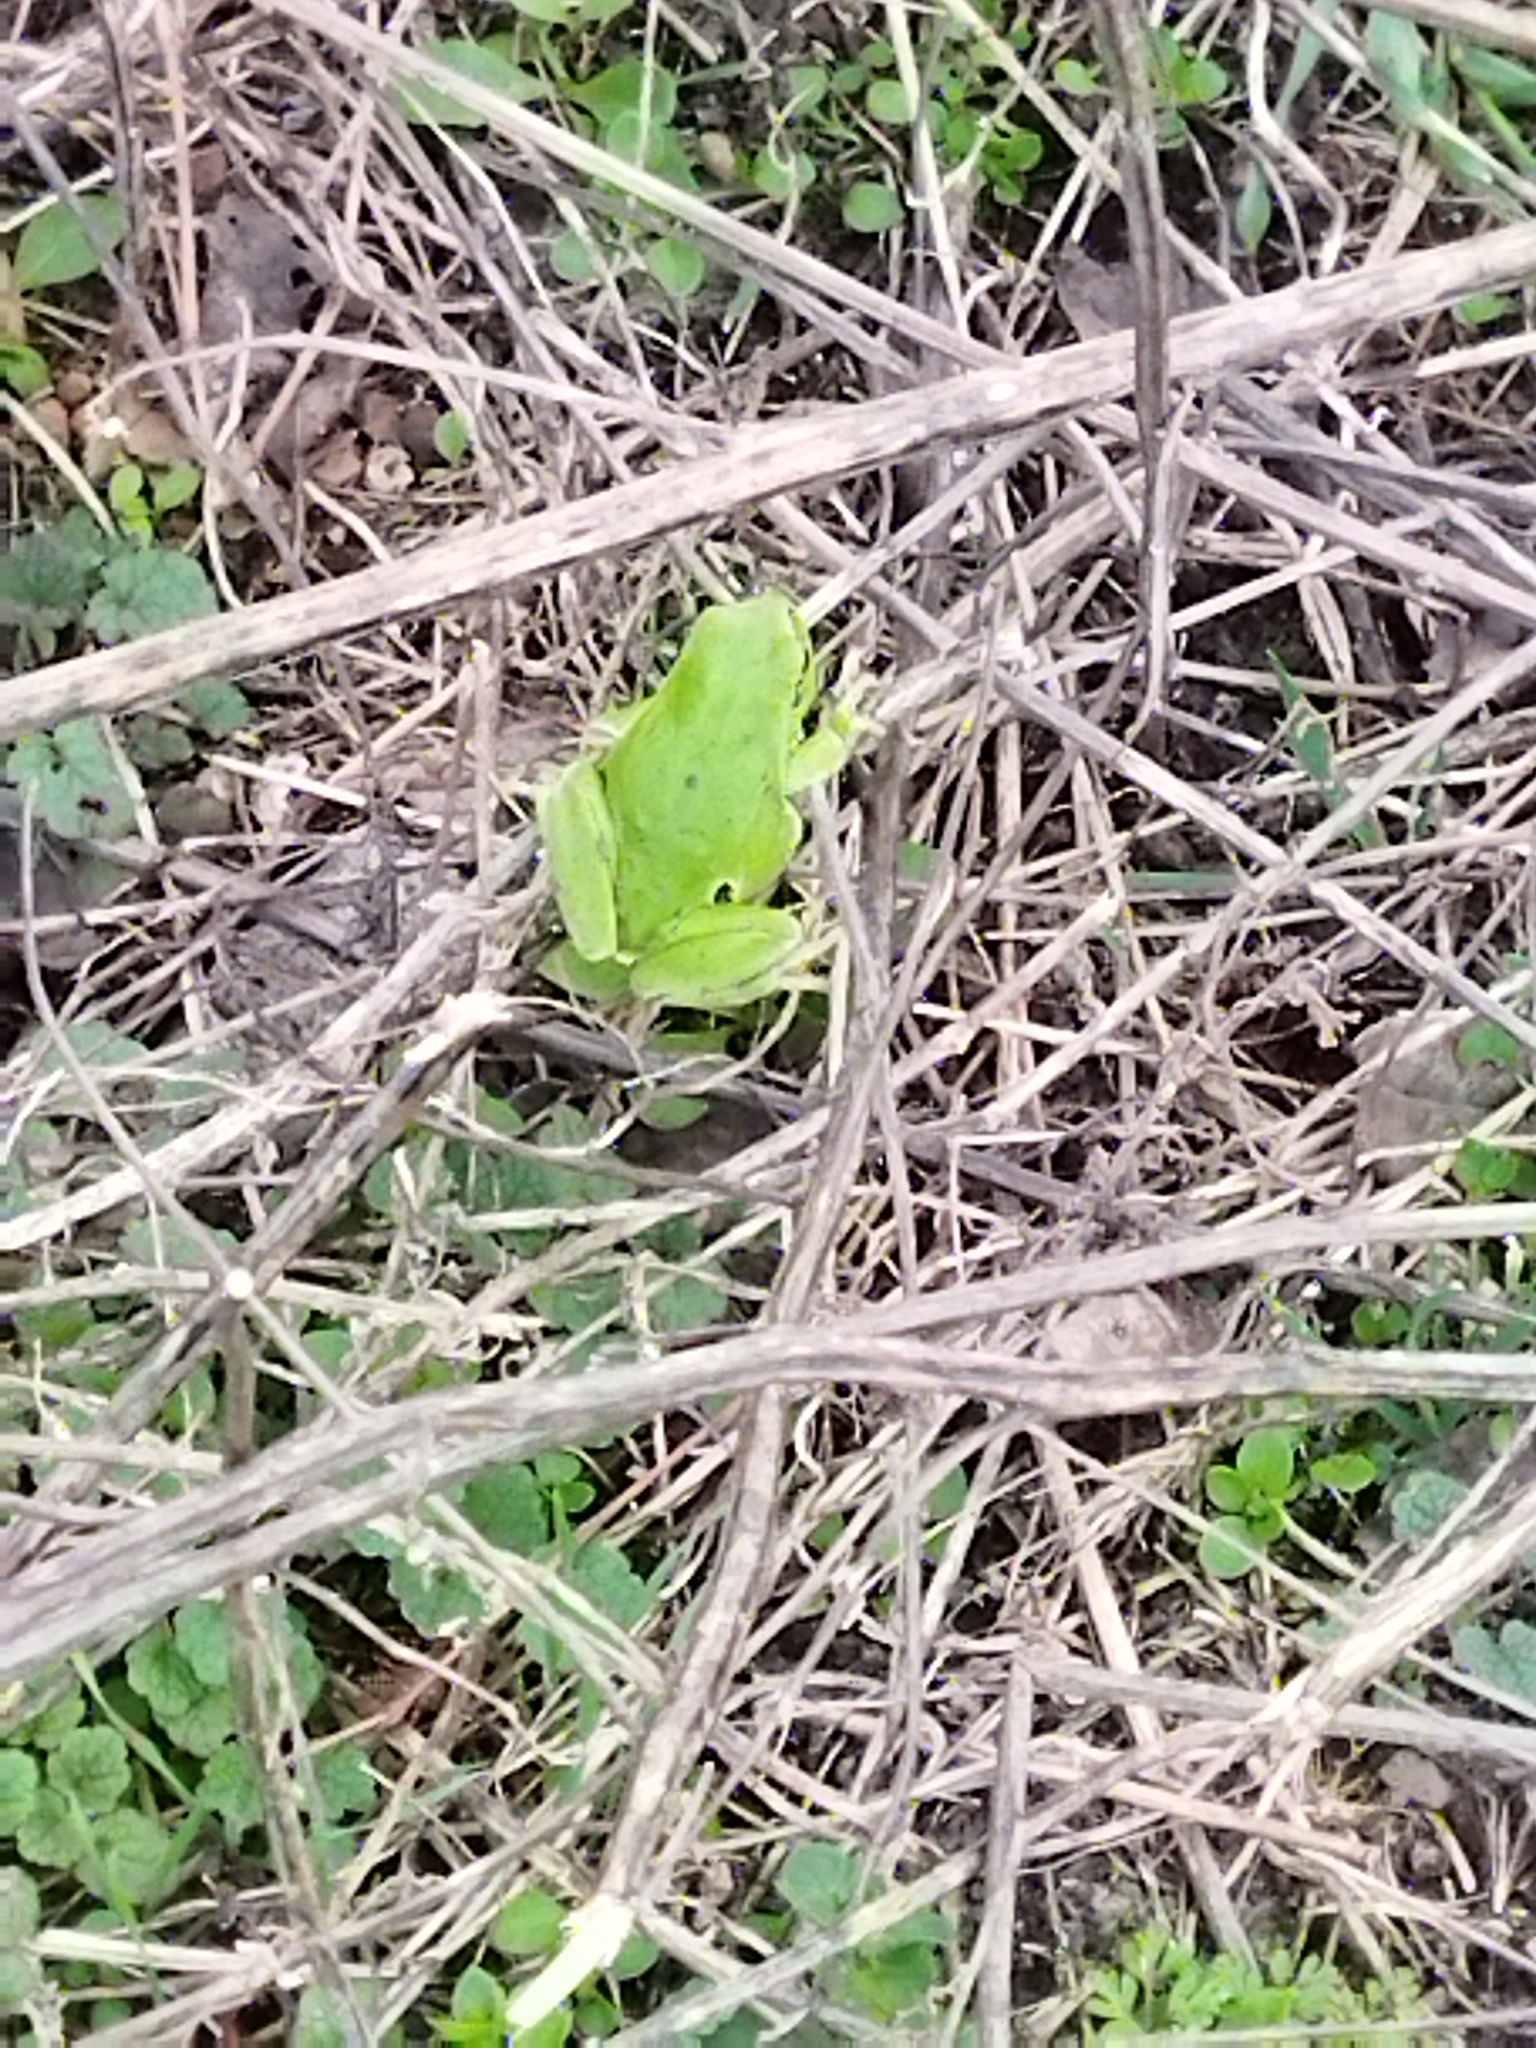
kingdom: Animalia
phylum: Chordata
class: Amphibia
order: Anura
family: Hylidae
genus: Hyla
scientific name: Hyla orientalis
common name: Caucasian treefrog
